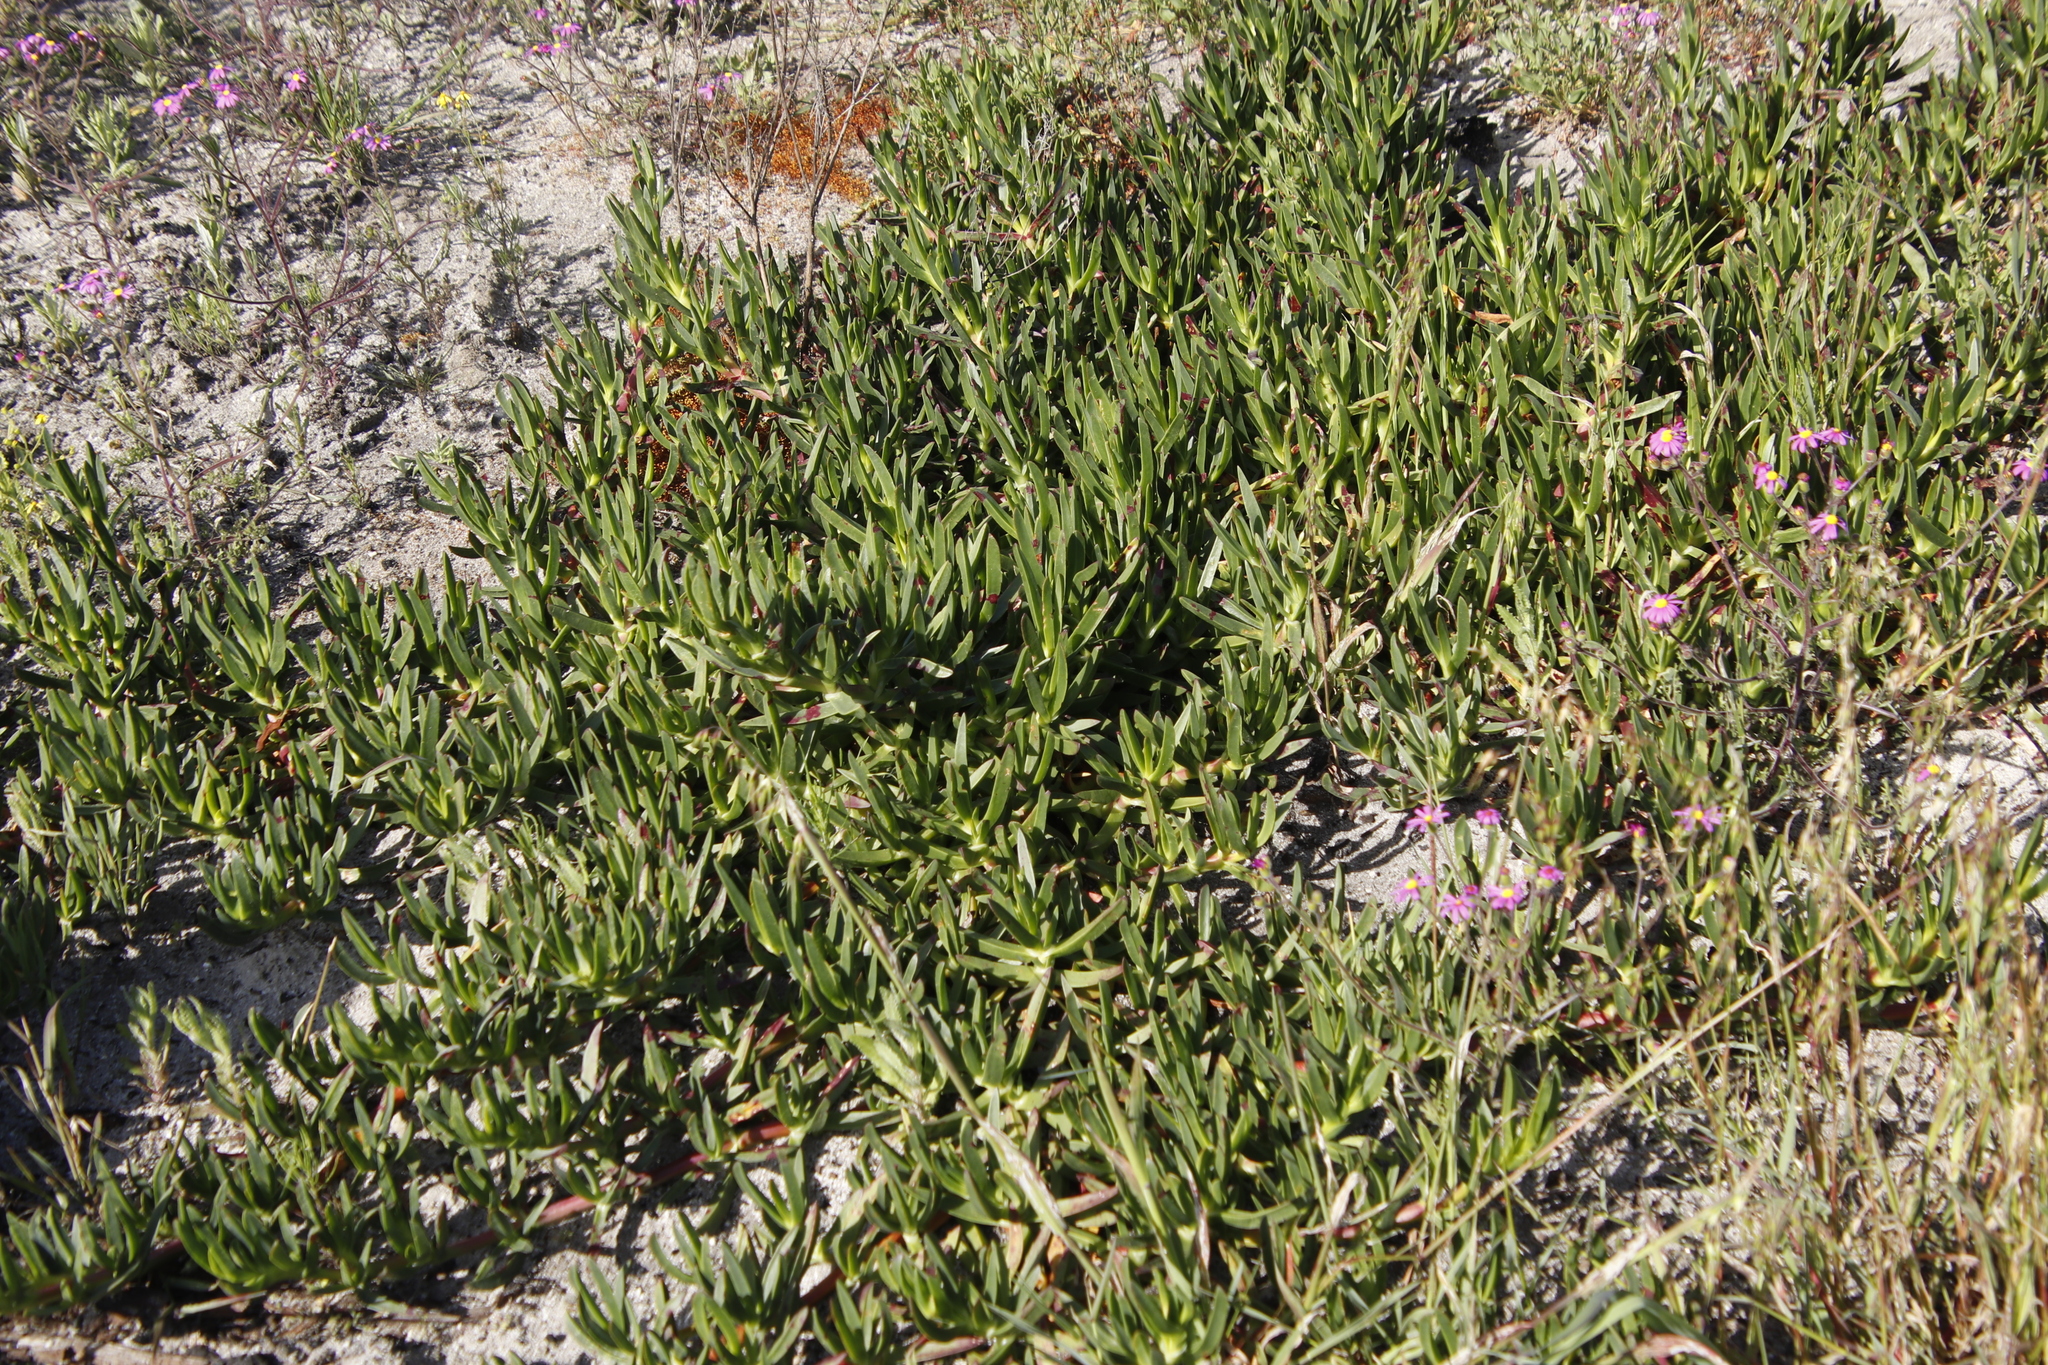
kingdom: Plantae
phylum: Tracheophyta
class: Magnoliopsida
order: Caryophyllales
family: Aizoaceae
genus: Carpobrotus
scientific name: Carpobrotus edulis
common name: Hottentot-fig
